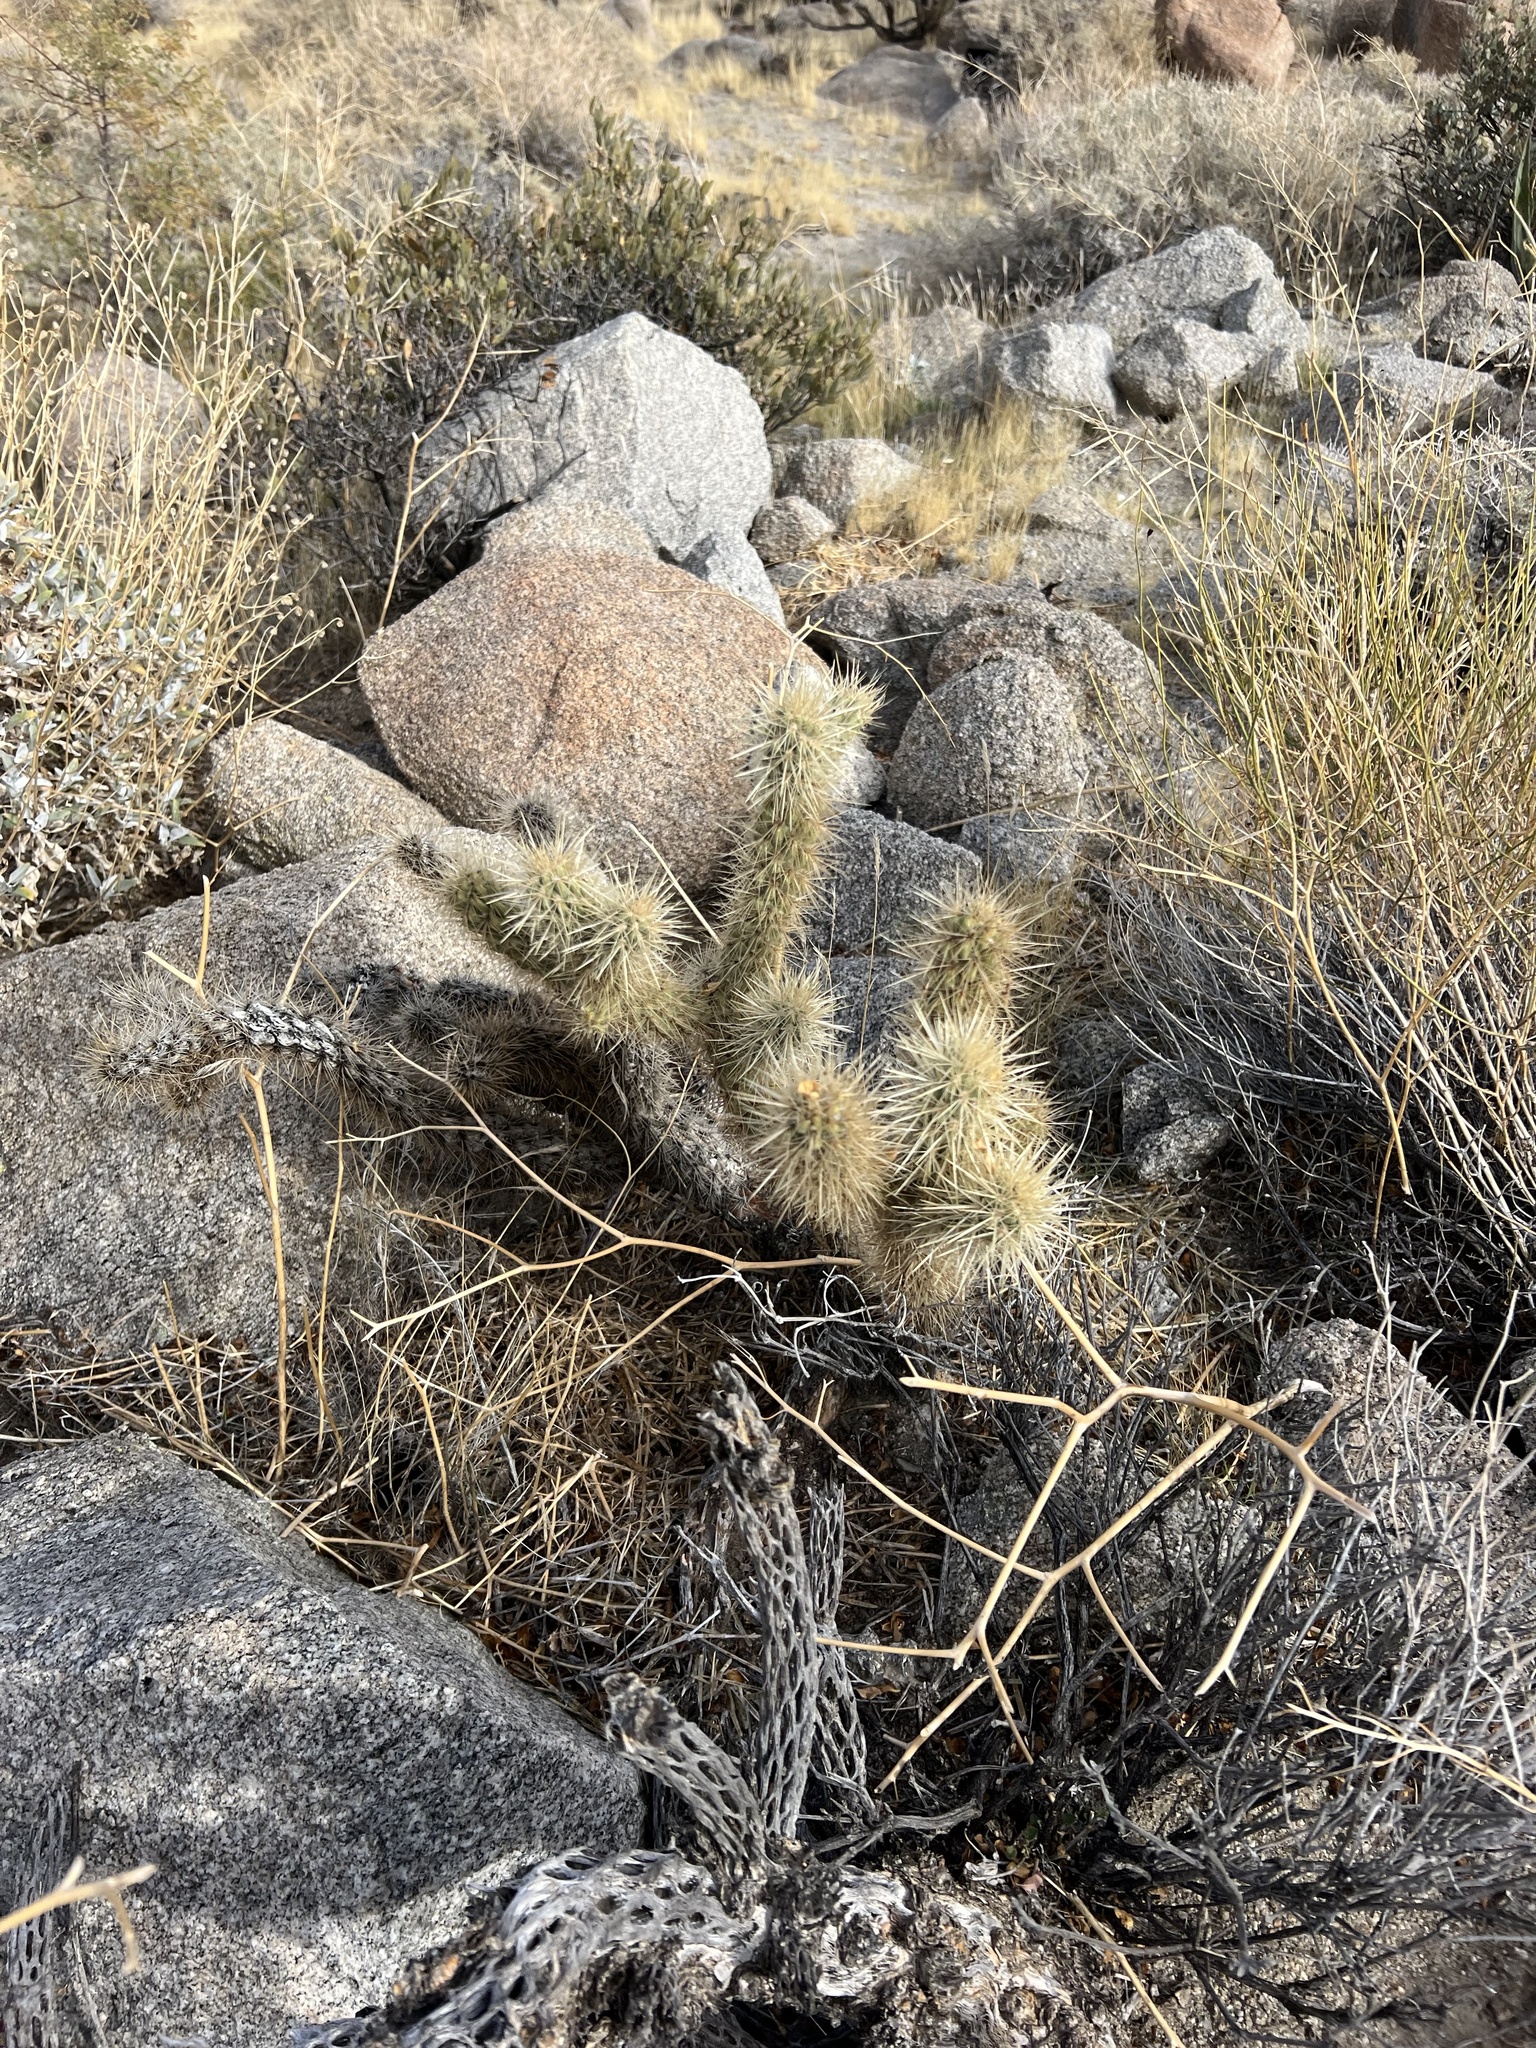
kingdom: Plantae
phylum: Tracheophyta
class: Magnoliopsida
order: Caryophyllales
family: Cactaceae
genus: Cylindropuntia
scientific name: Cylindropuntia ganderi
